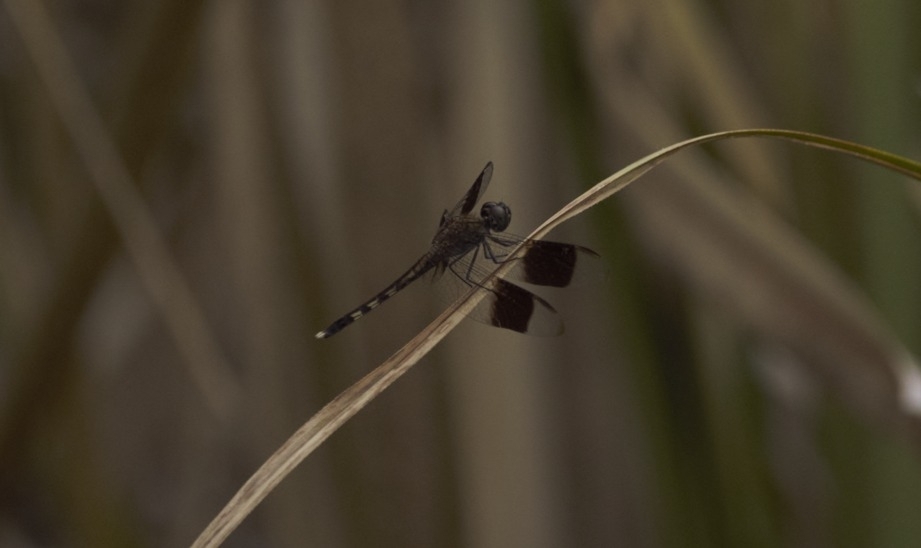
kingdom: Animalia
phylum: Arthropoda
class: Insecta
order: Odonata
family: Libellulidae
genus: Erythrodiplax
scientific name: Erythrodiplax umbrata
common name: Band-winged dragonlet
